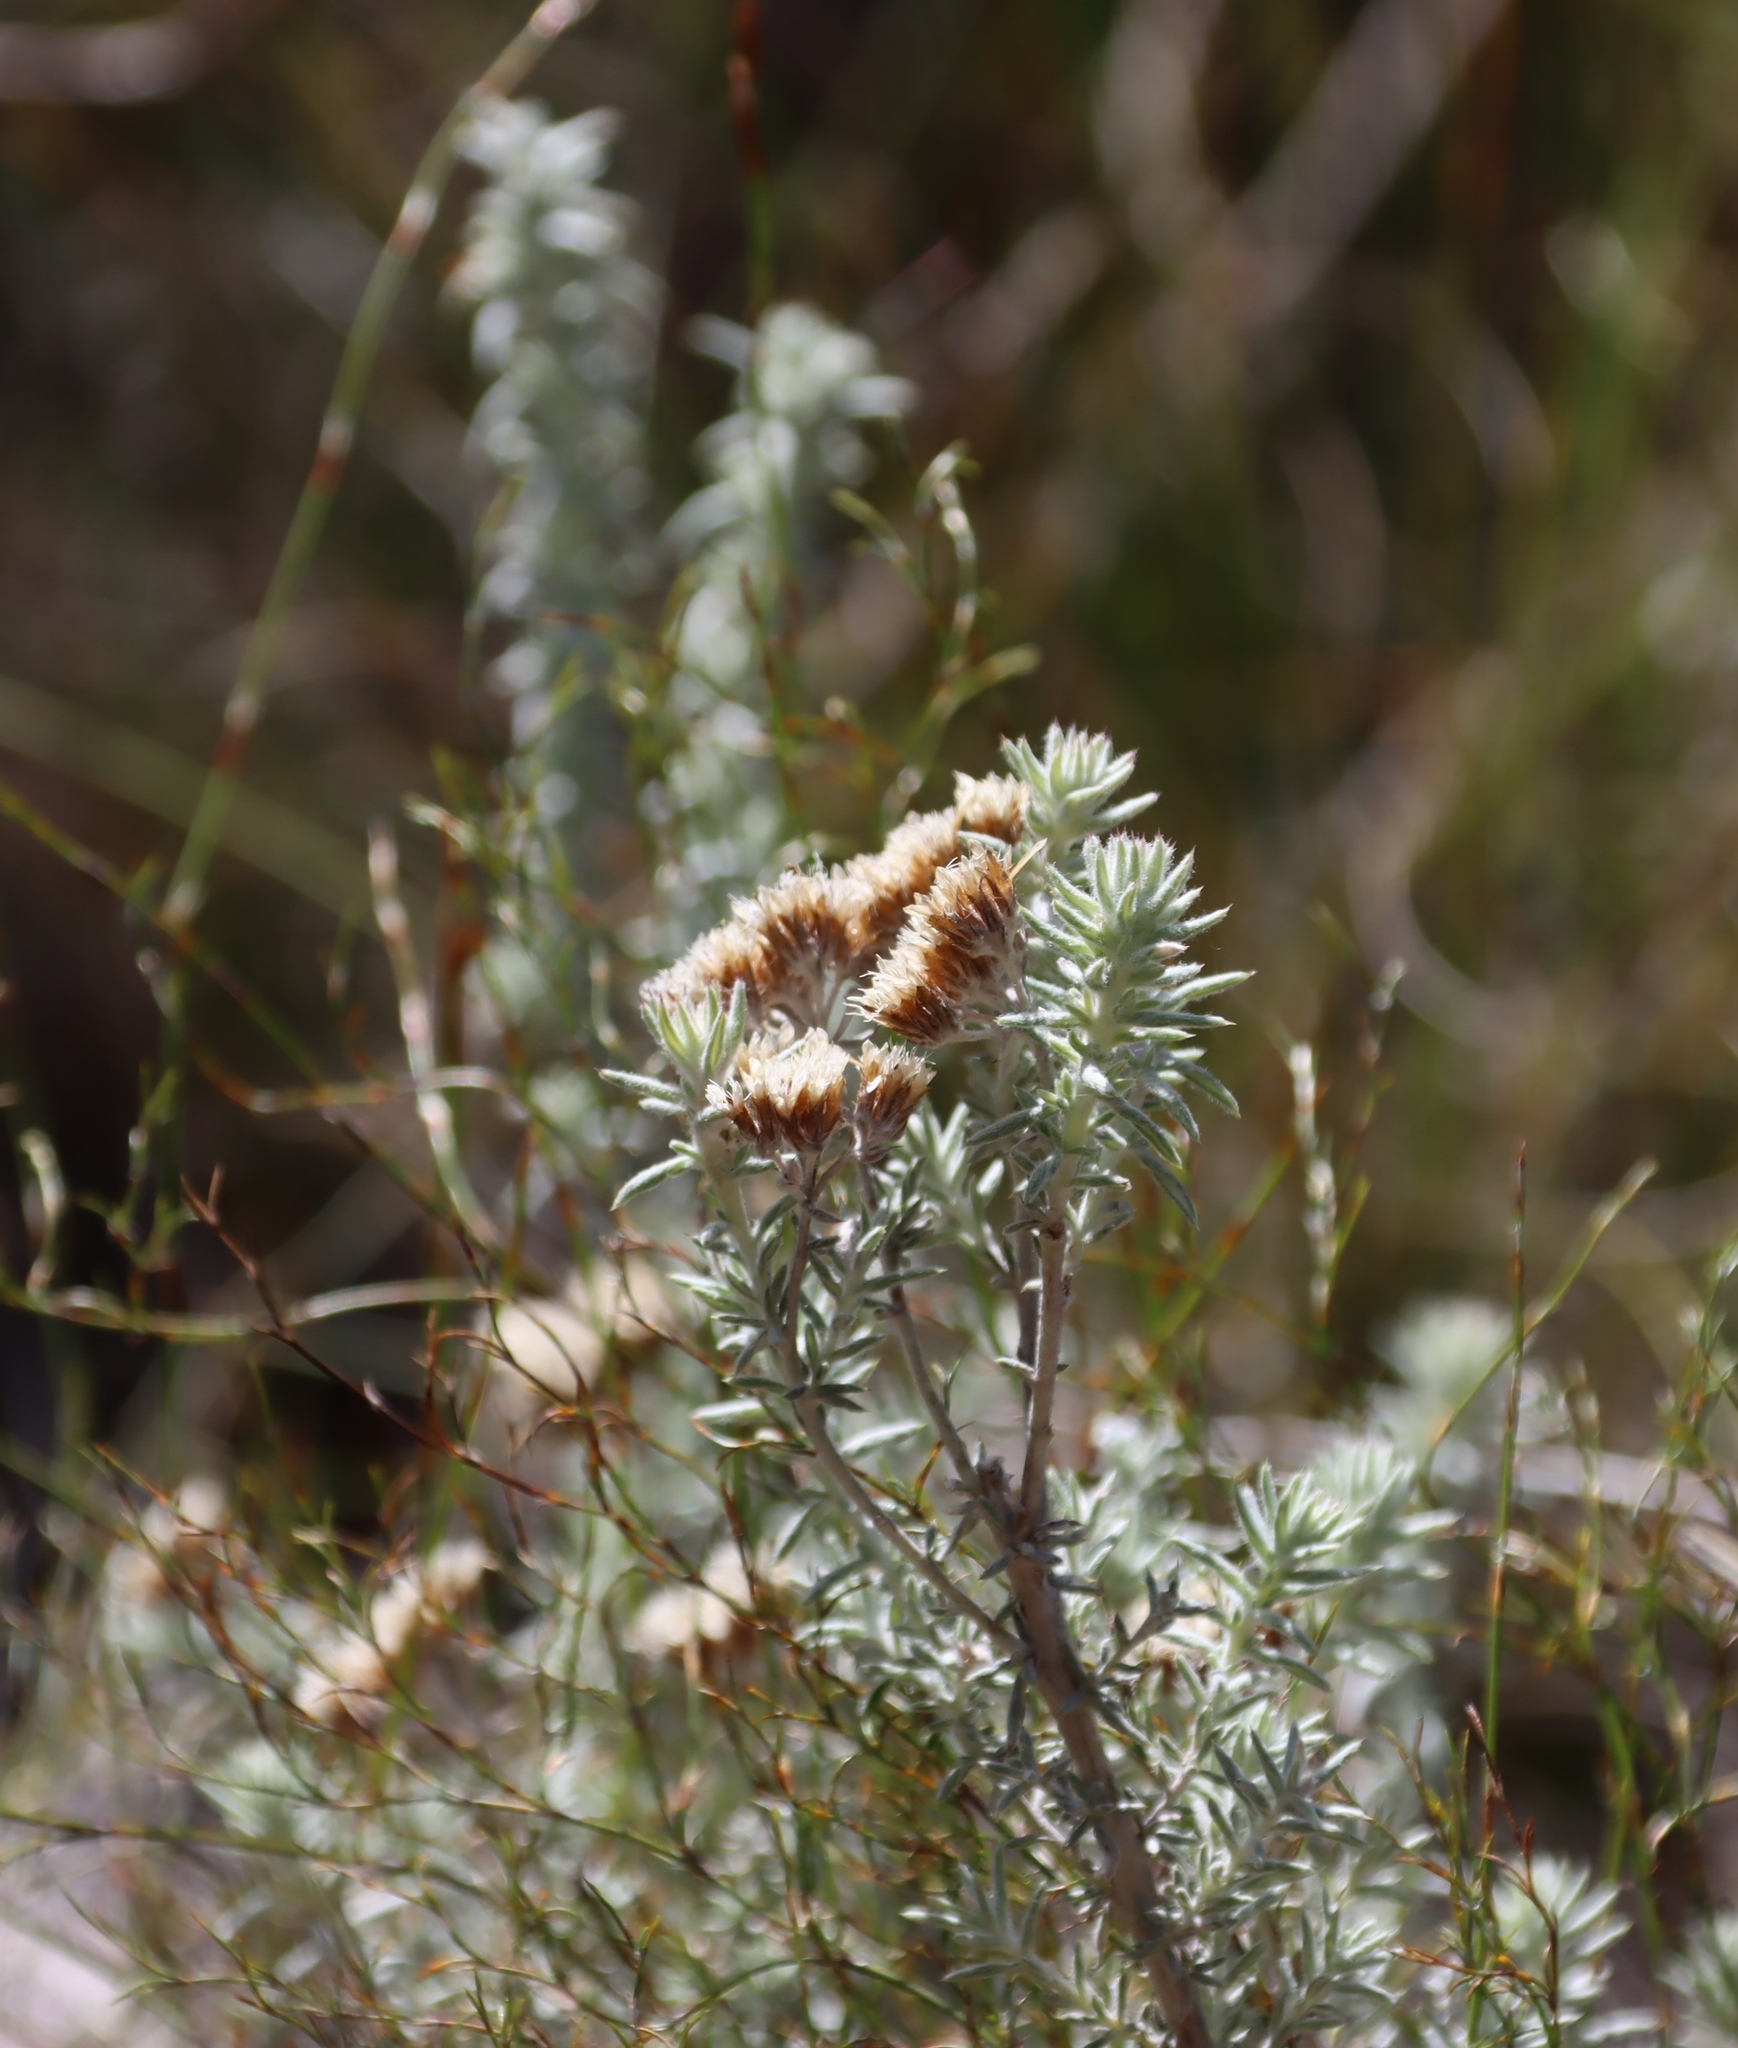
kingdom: Plantae
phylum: Tracheophyta
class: Magnoliopsida
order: Asterales
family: Asteraceae
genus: Metalasia
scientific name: Metalasia densa
